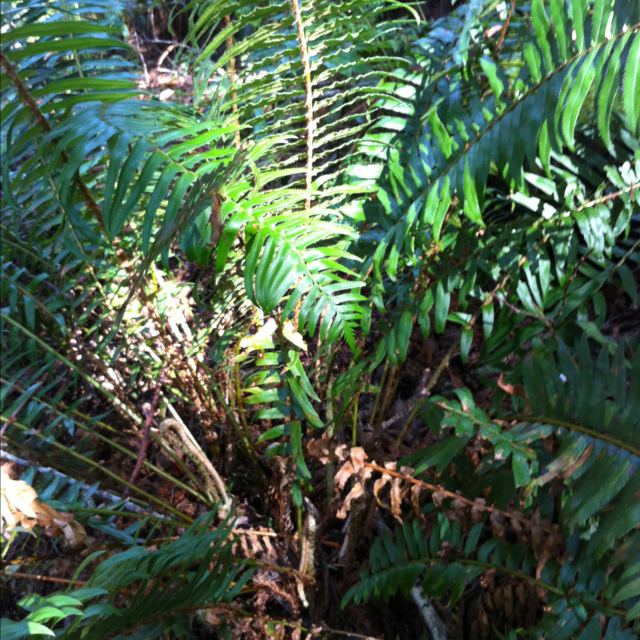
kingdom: Plantae
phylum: Tracheophyta
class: Polypodiopsida
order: Polypodiales
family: Dryopteridaceae
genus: Polystichum
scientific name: Polystichum munitum
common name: Western sword-fern
